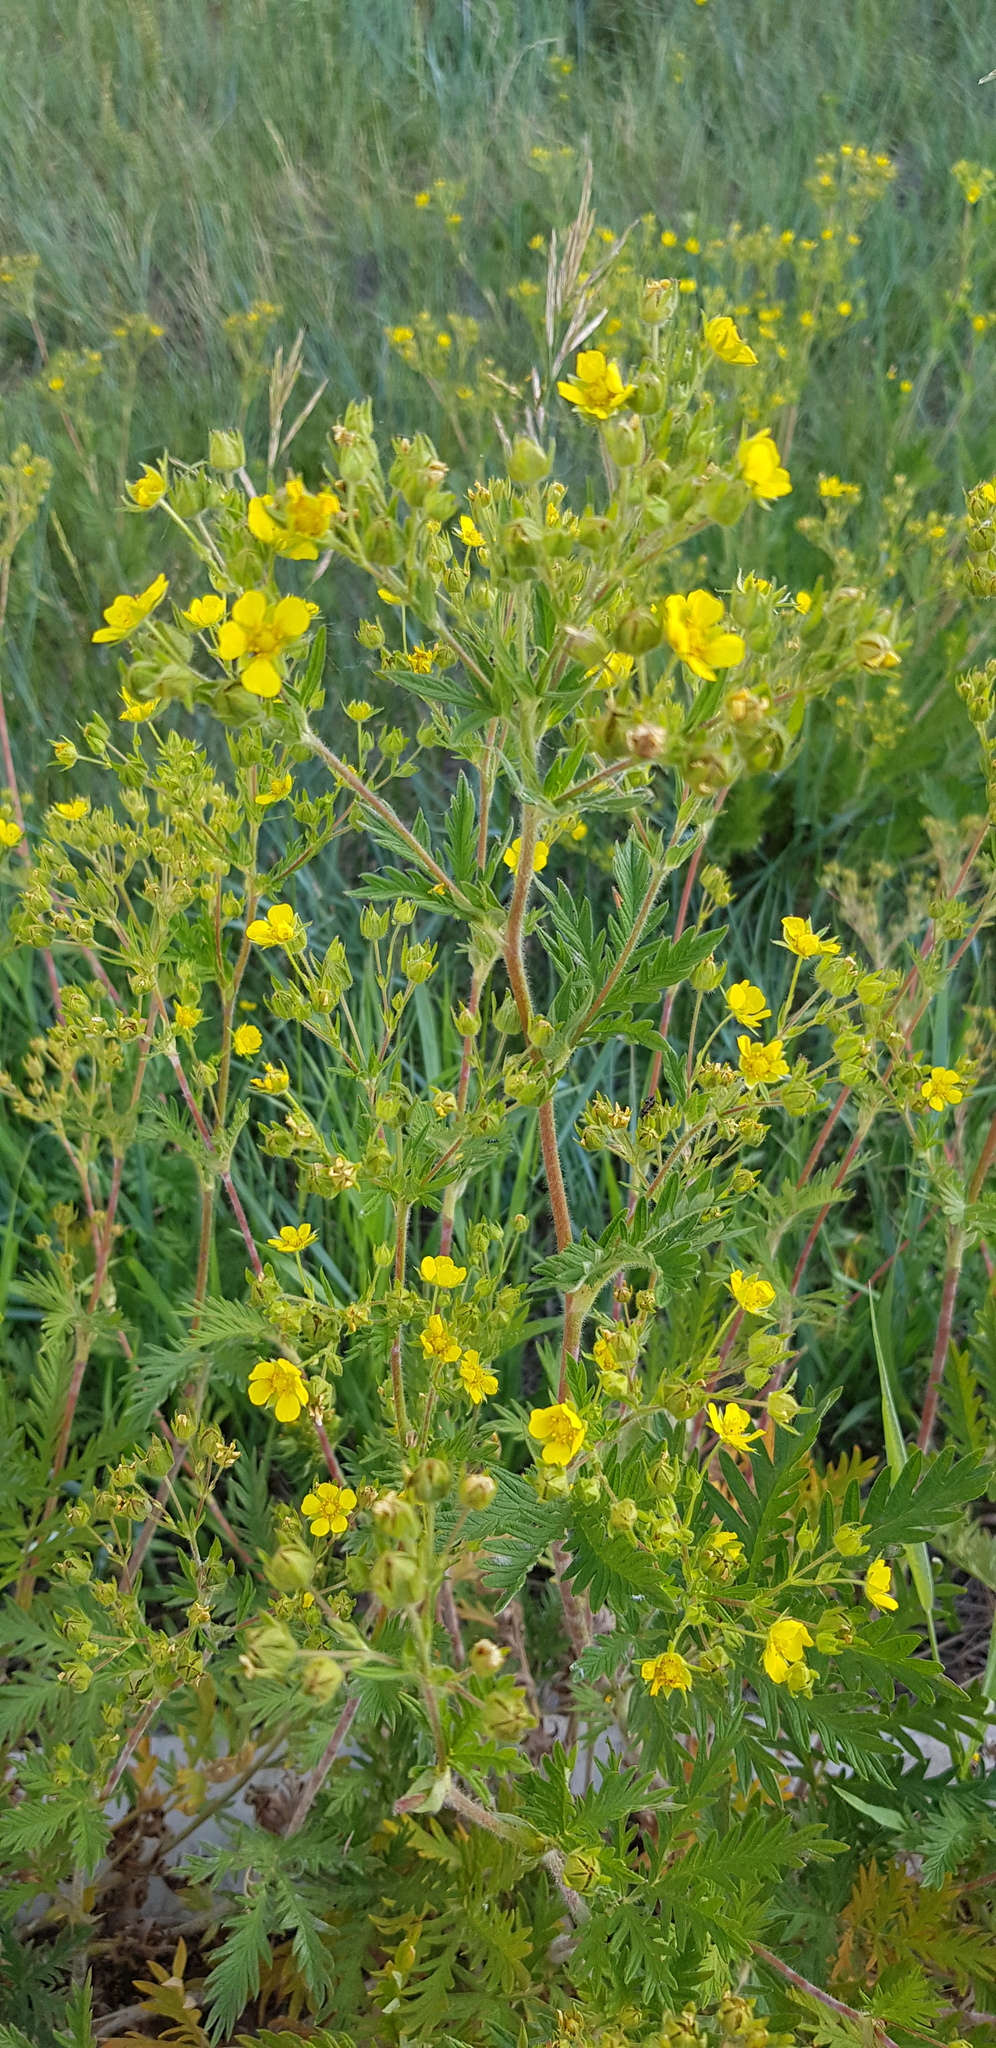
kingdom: Plantae
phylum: Tracheophyta
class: Magnoliopsida
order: Rosales
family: Rosaceae
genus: Potentilla
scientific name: Potentilla supina
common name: Prostrate cinquefoil
